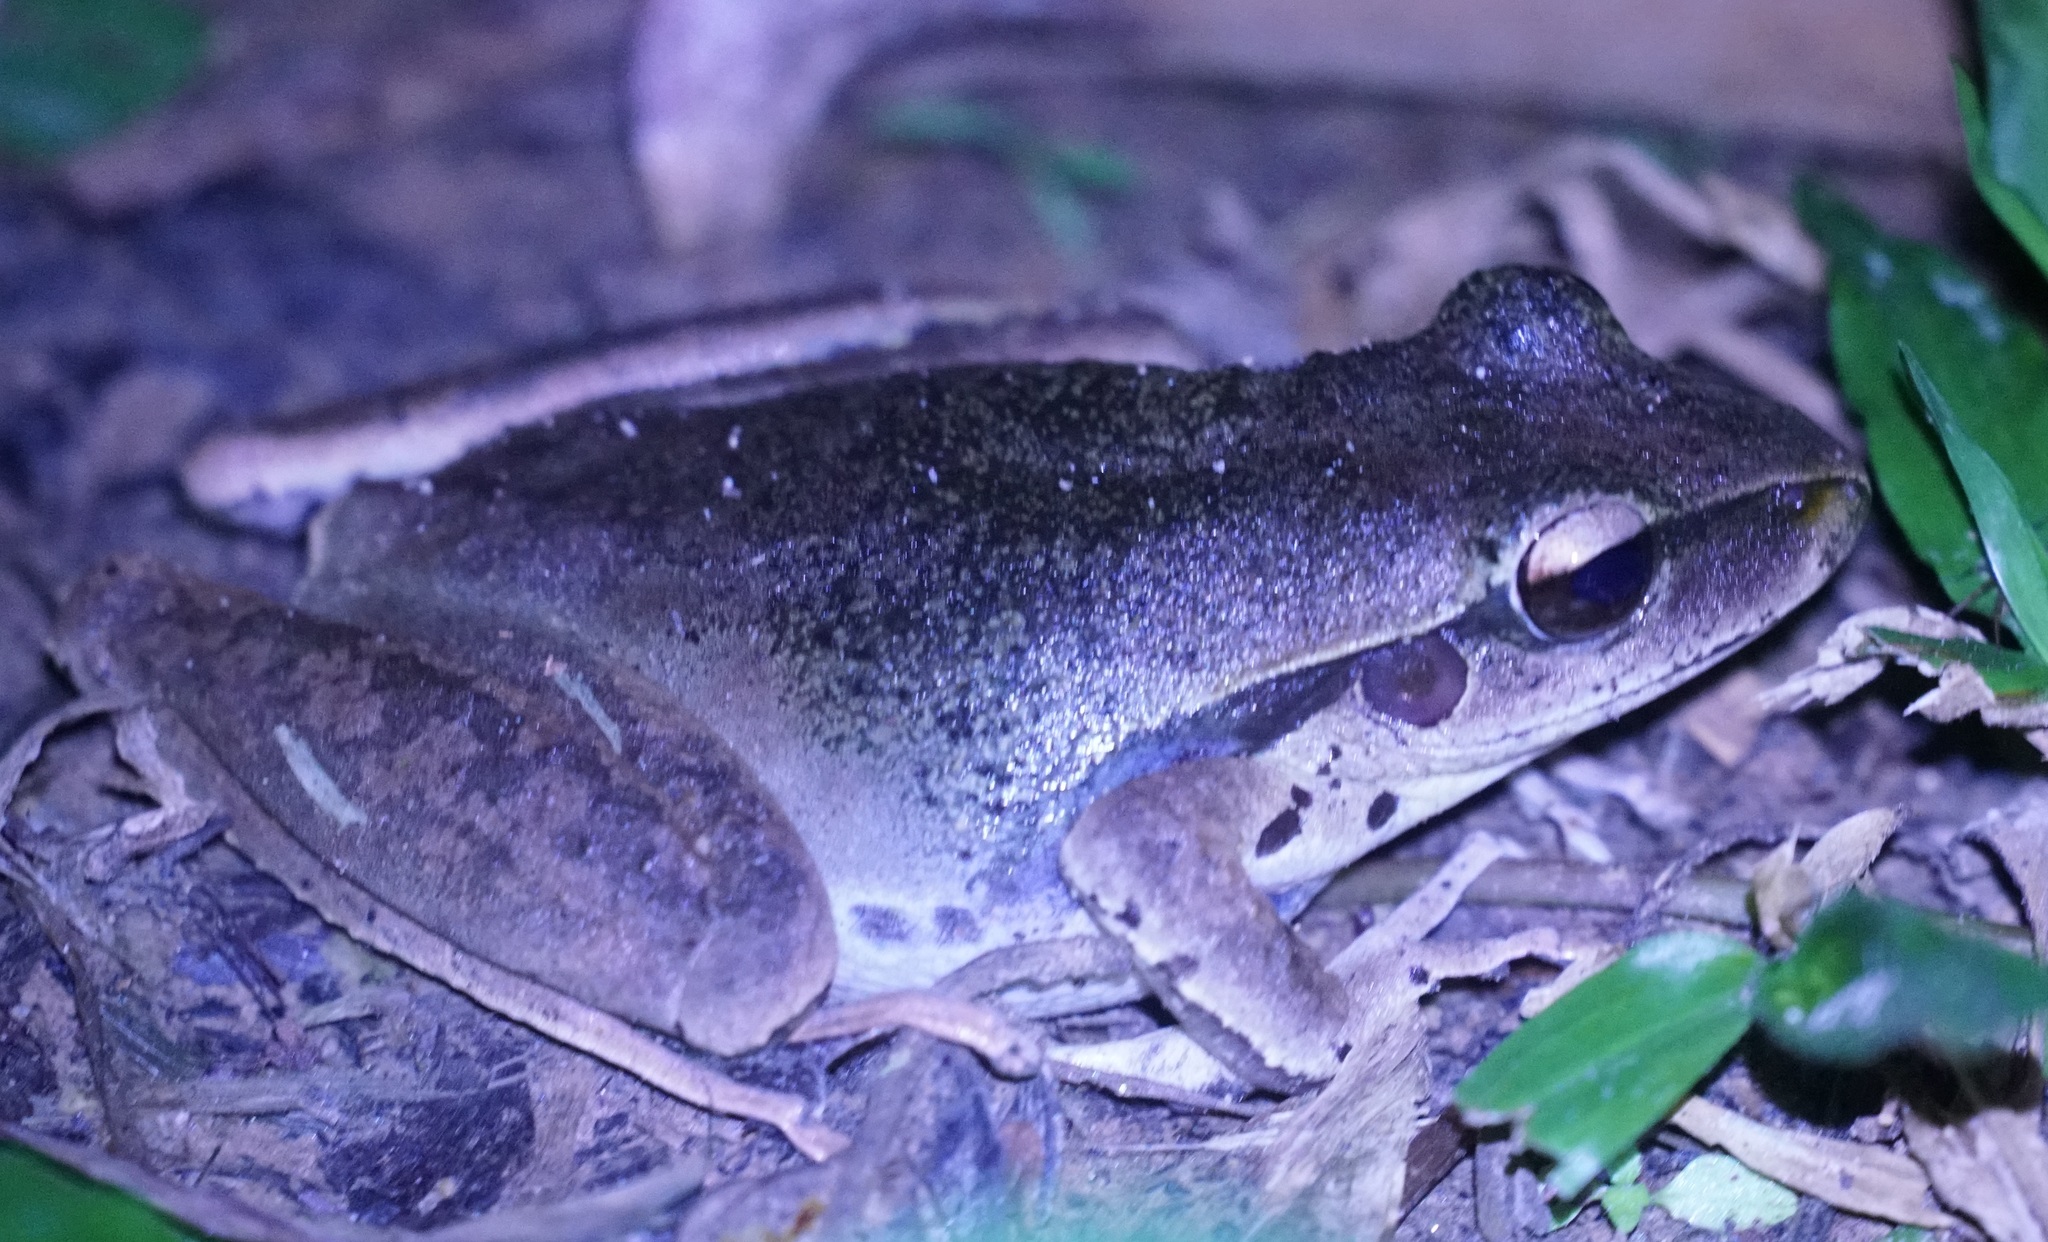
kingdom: Animalia
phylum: Chordata
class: Amphibia
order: Anura
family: Hylidae
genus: Ranoidea
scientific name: Ranoidea
